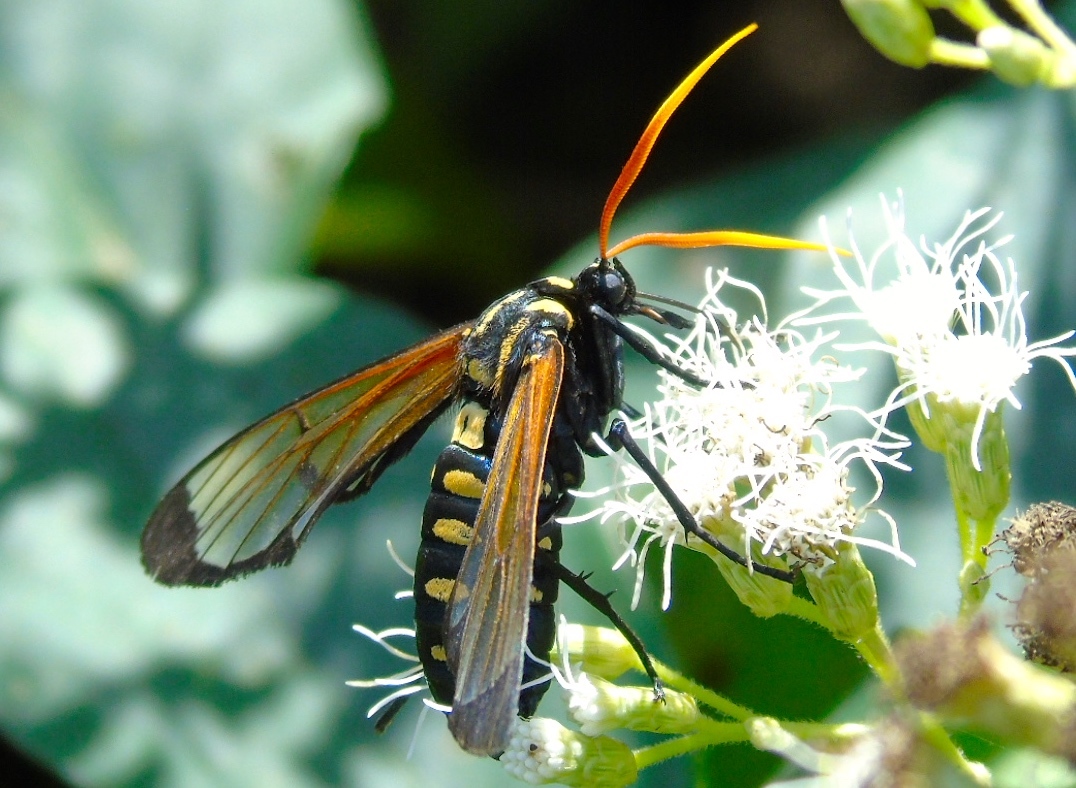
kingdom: Animalia
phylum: Arthropoda
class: Insecta
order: Lepidoptera
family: Erebidae
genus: Isanthrene
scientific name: Isanthrene perboscii
